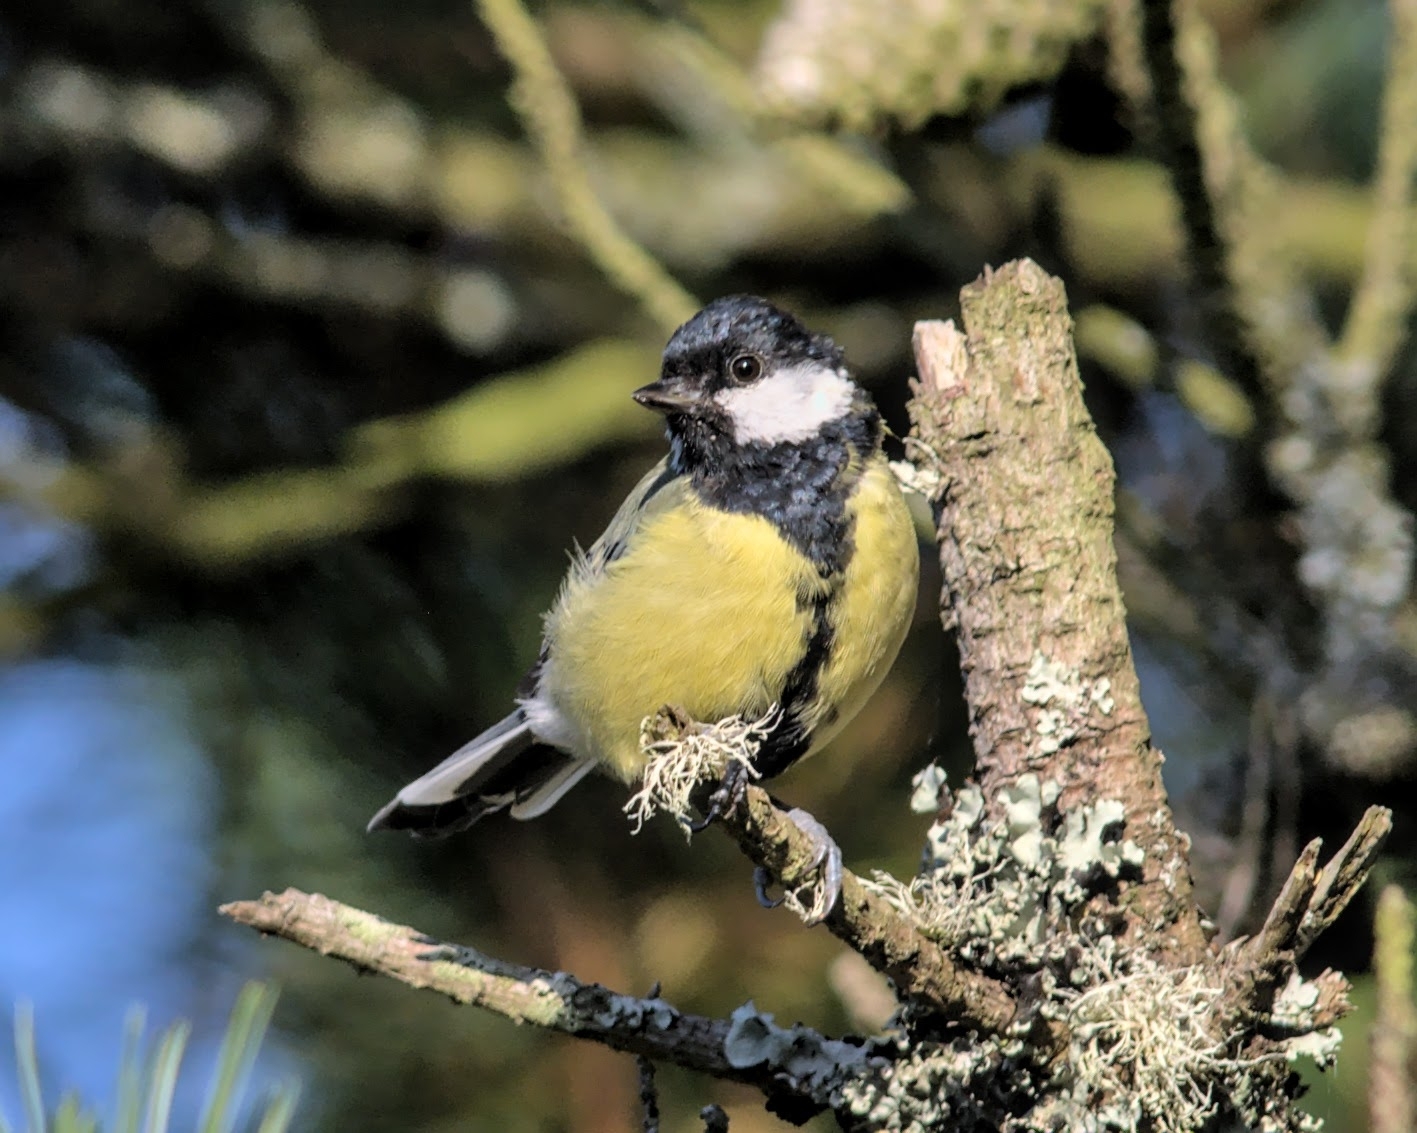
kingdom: Animalia
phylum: Chordata
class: Aves
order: Passeriformes
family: Paridae
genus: Parus
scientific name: Parus major
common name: Great tit
